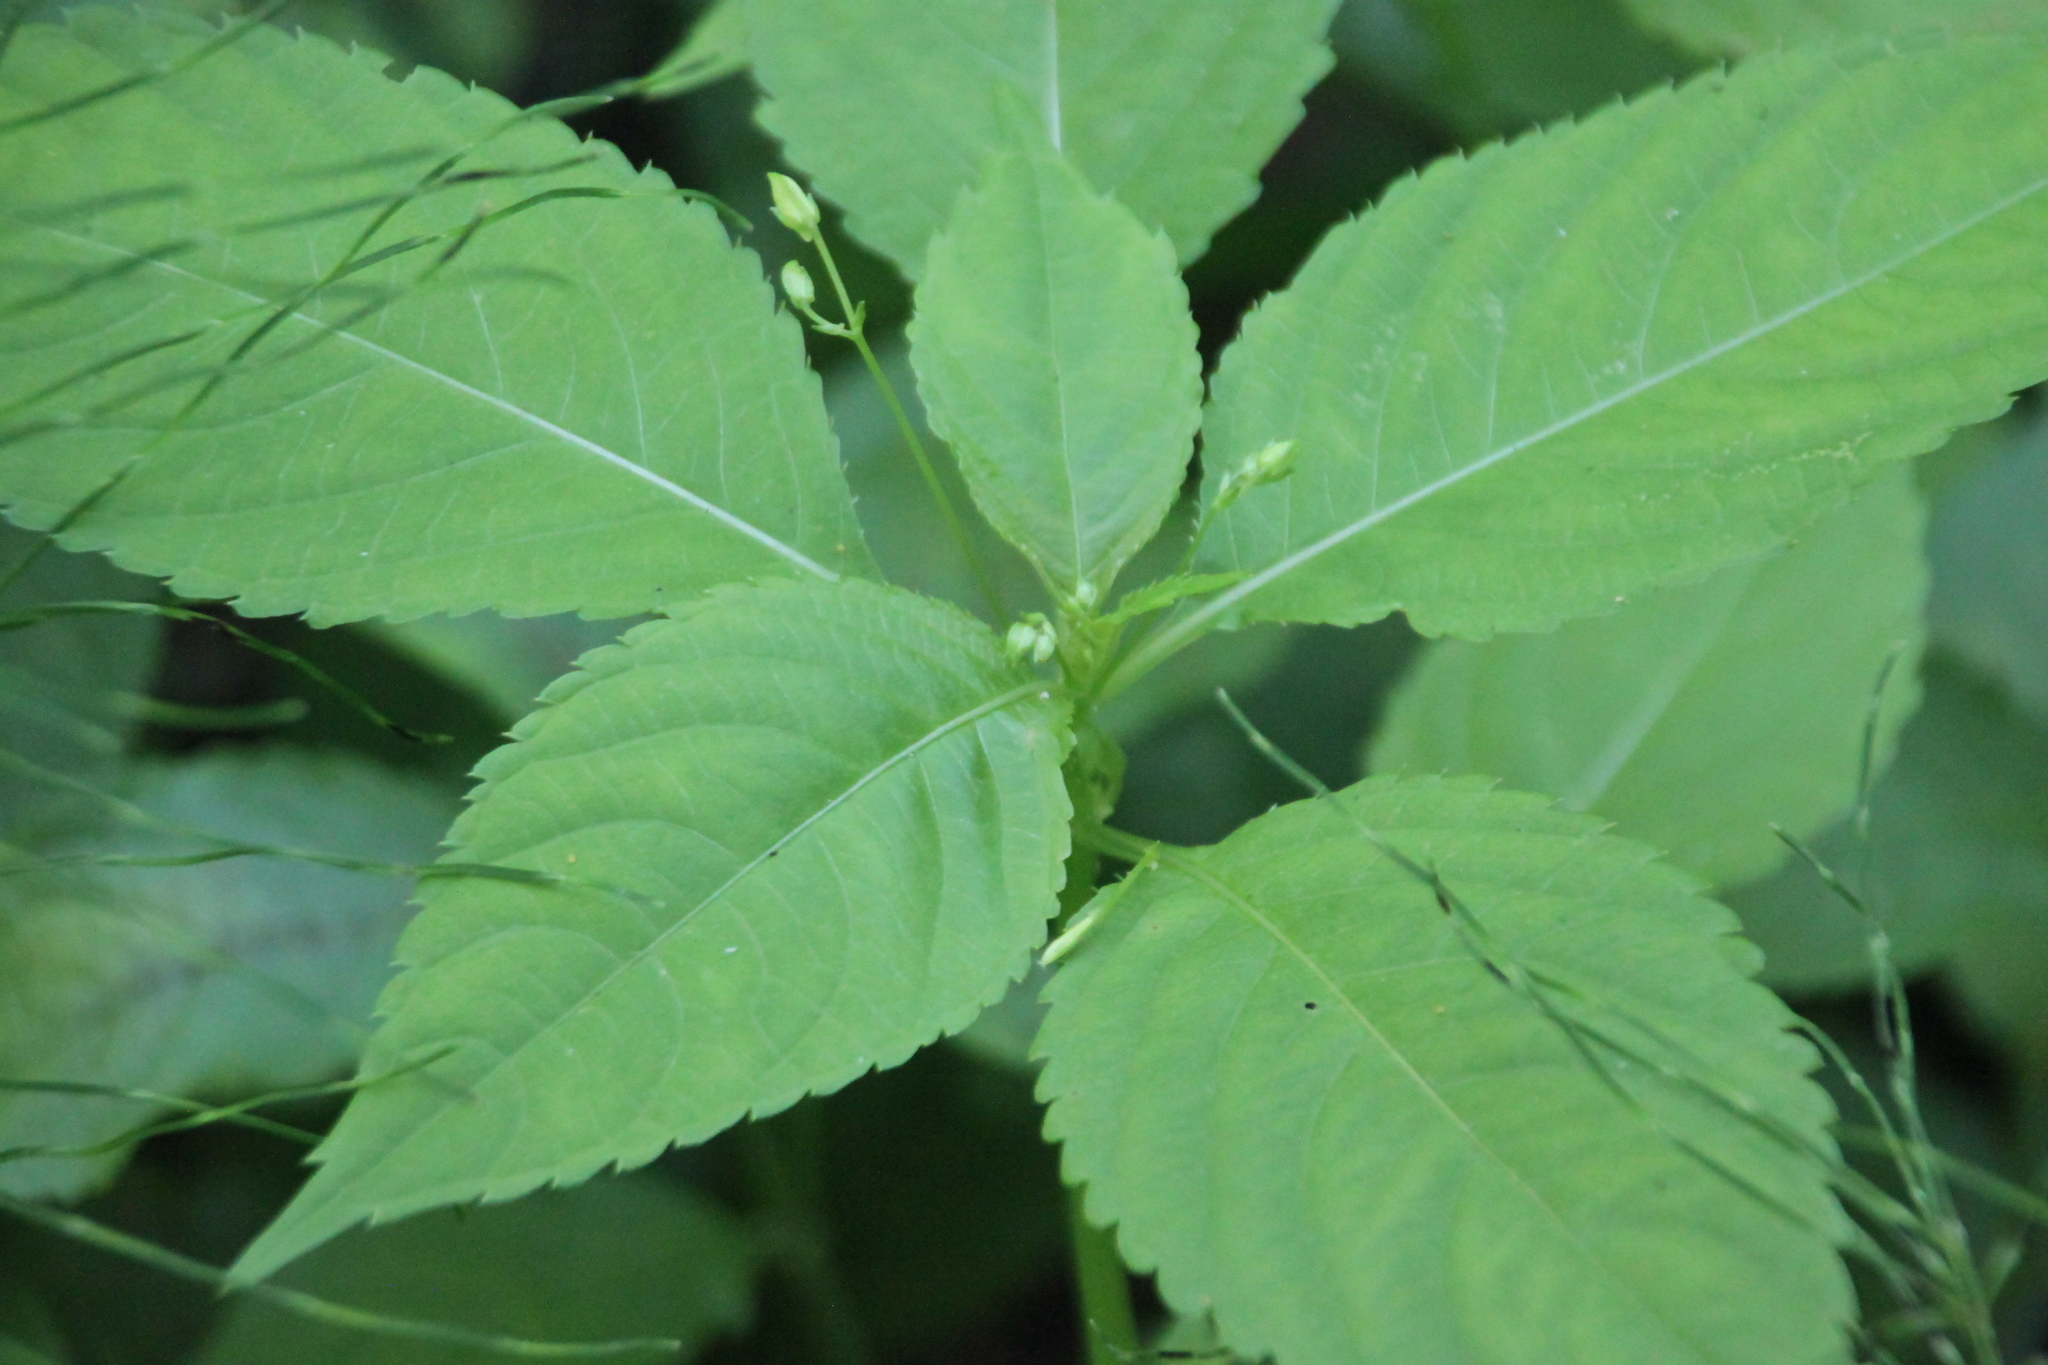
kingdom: Plantae
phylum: Tracheophyta
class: Magnoliopsida
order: Ericales
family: Balsaminaceae
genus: Impatiens
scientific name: Impatiens parviflora
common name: Small balsam
